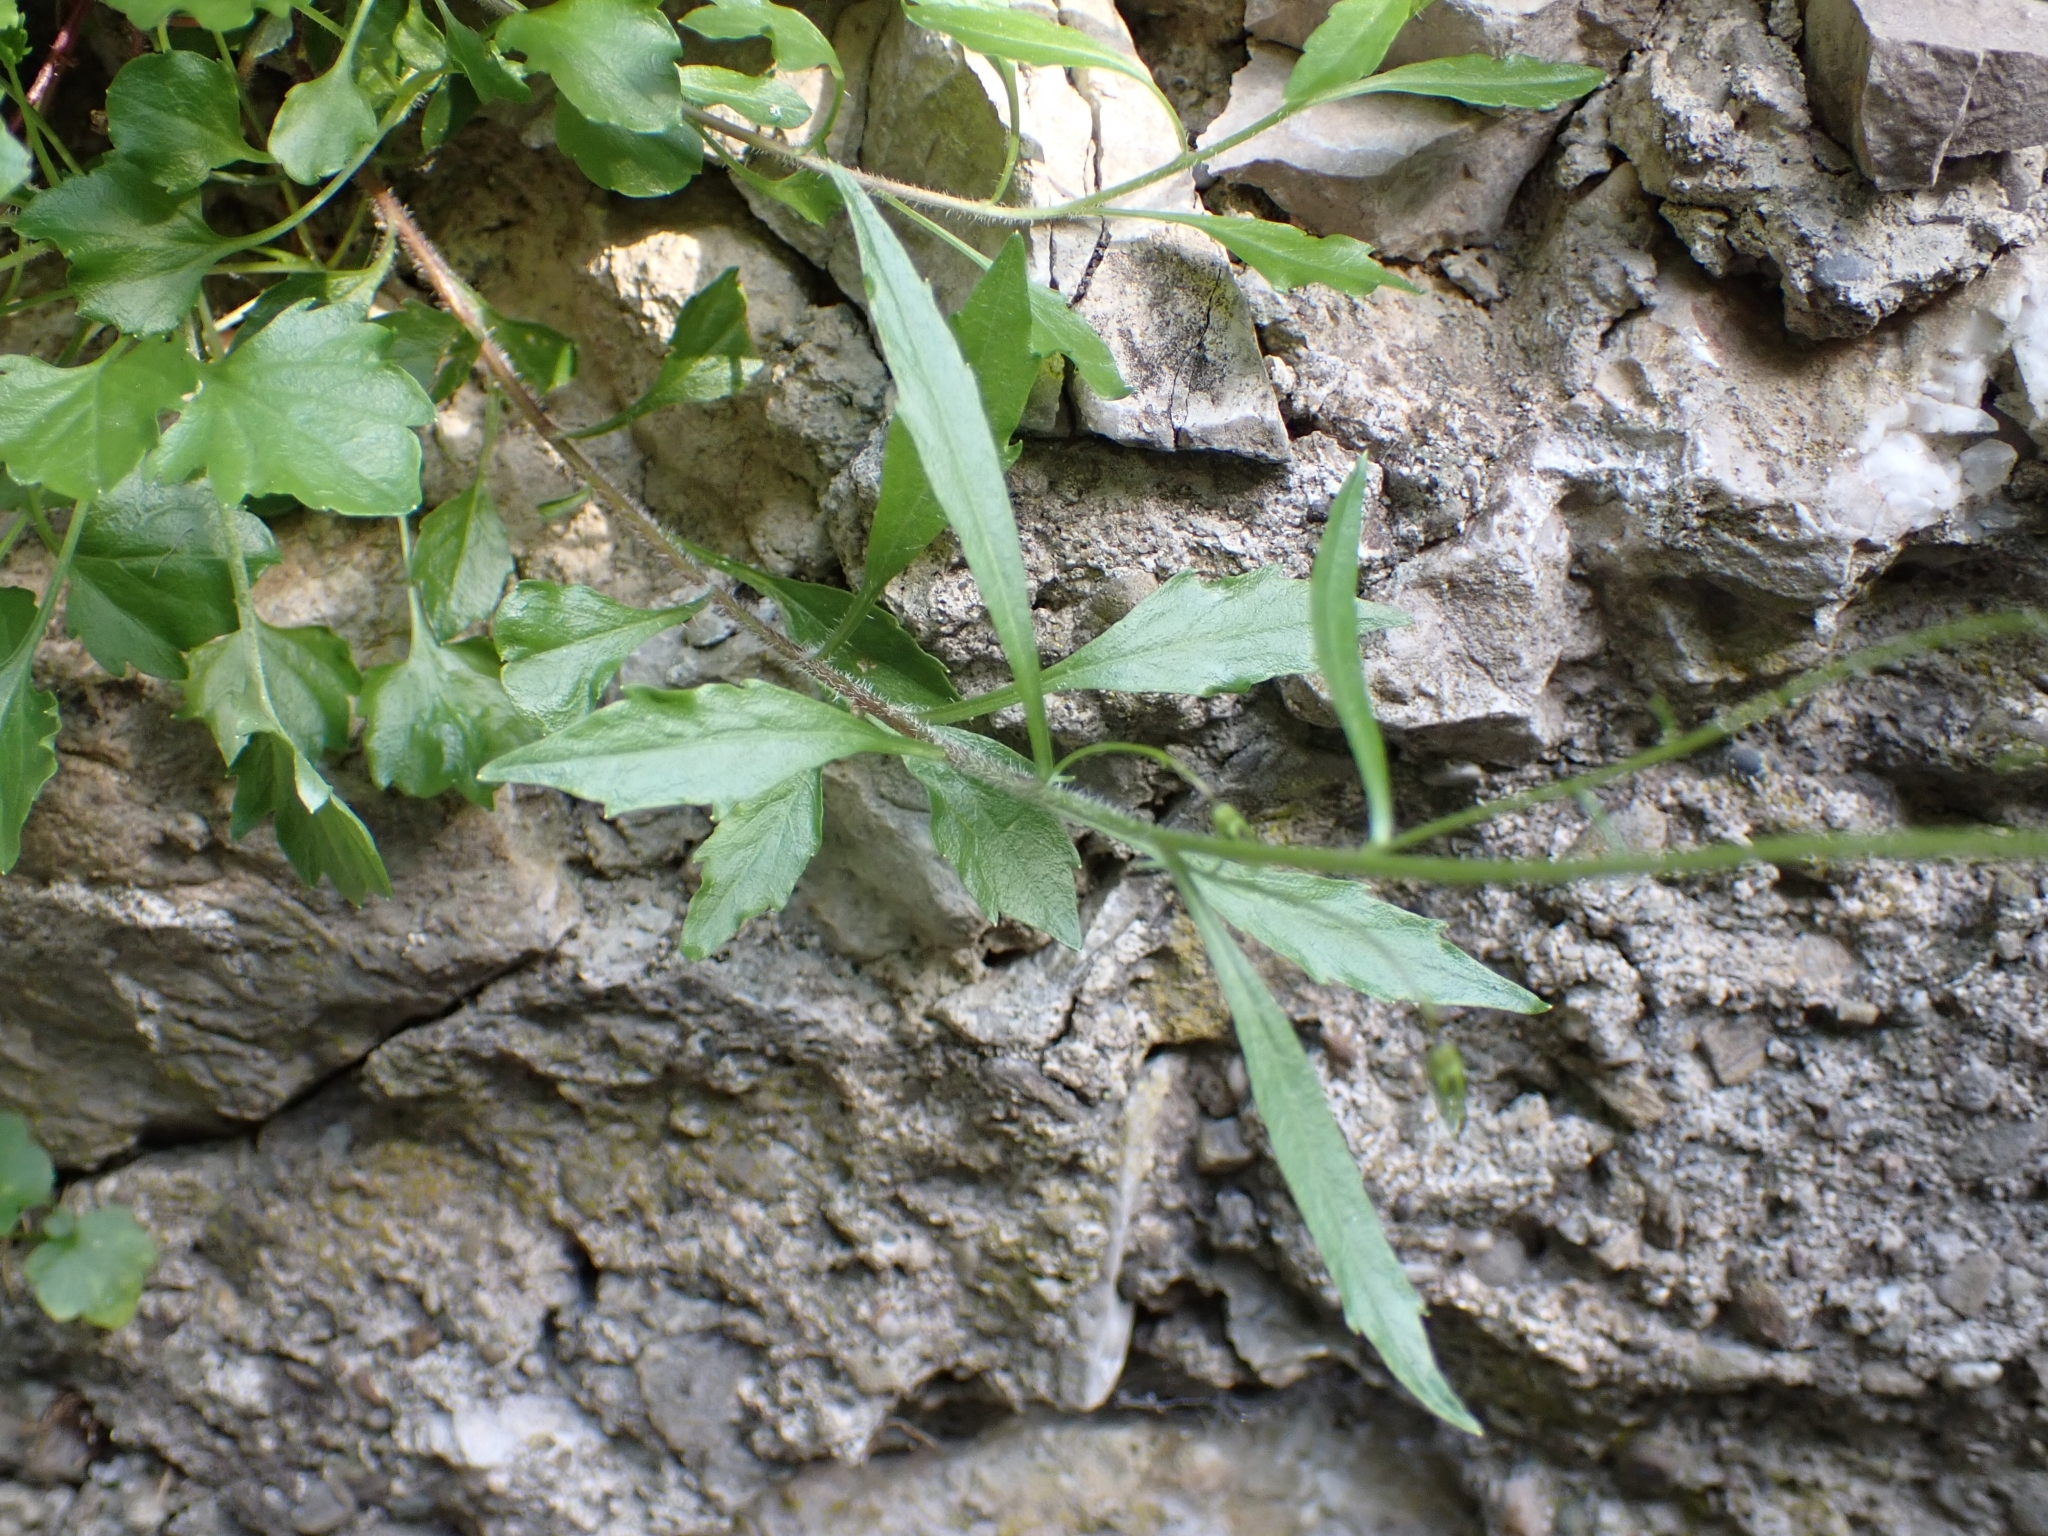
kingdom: Plantae
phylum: Tracheophyta
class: Magnoliopsida
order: Asterales
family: Campanulaceae
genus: Campanula
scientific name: Campanula cochleariifolia
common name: Fairies'-thimbles
